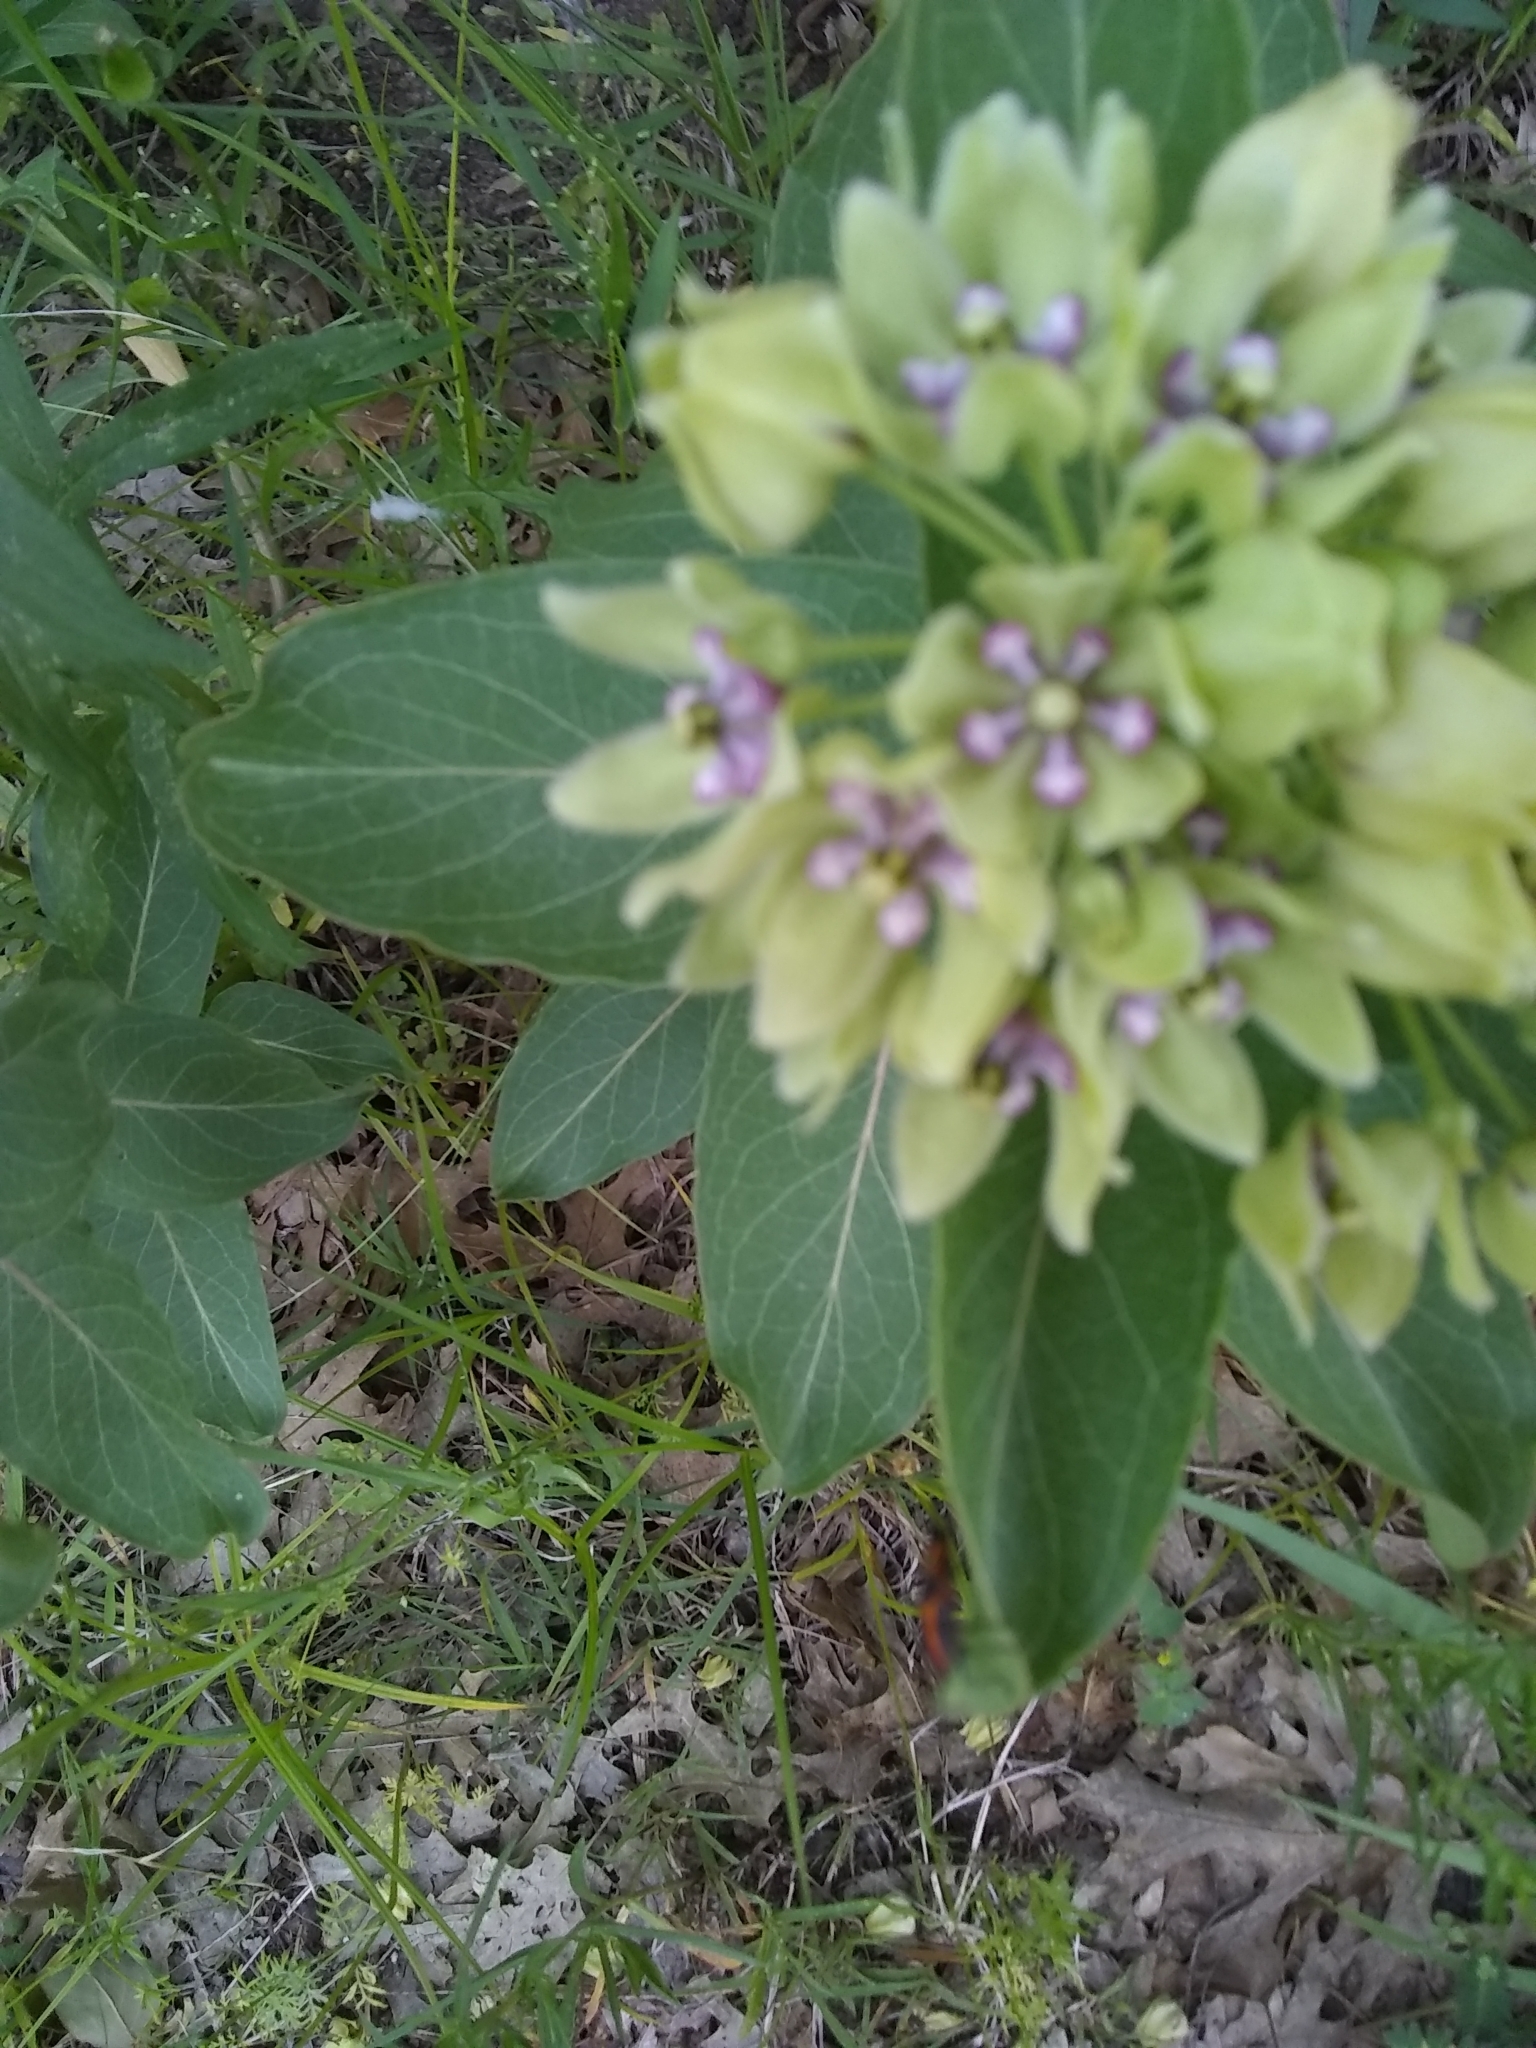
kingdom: Plantae
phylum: Tracheophyta
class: Magnoliopsida
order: Gentianales
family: Apocynaceae
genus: Asclepias
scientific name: Asclepias viridis
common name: Antelope-horns
